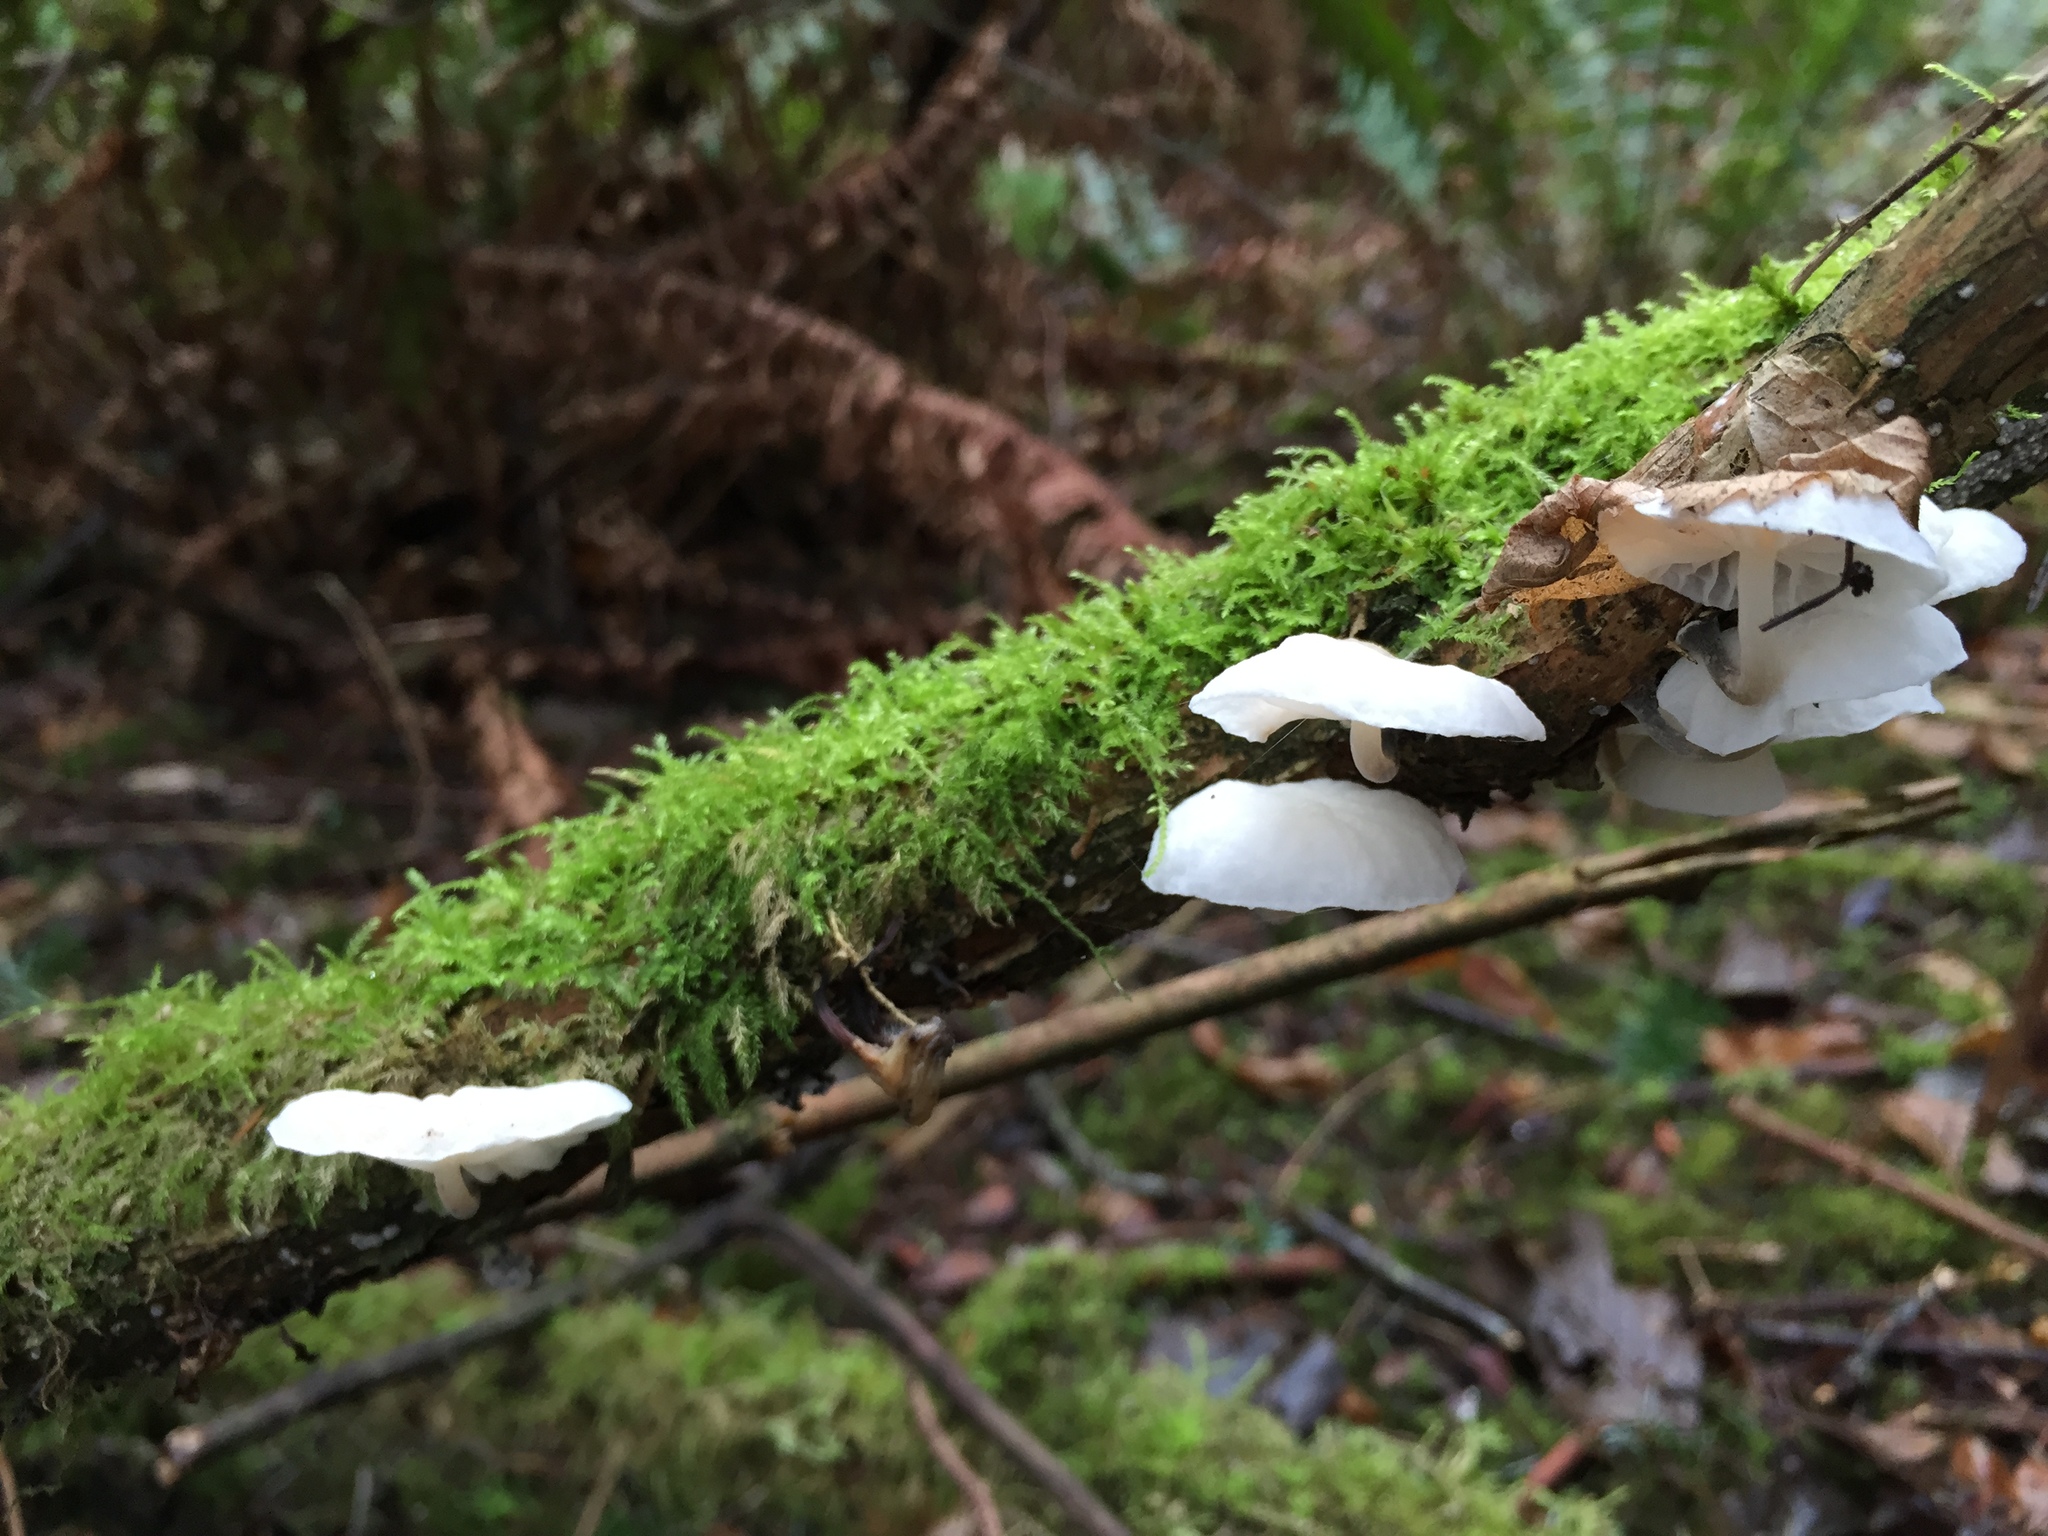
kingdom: Fungi
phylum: Basidiomycota
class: Agaricomycetes
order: Agaricales
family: Omphalotaceae
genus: Marasmiellus
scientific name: Marasmiellus candidus
